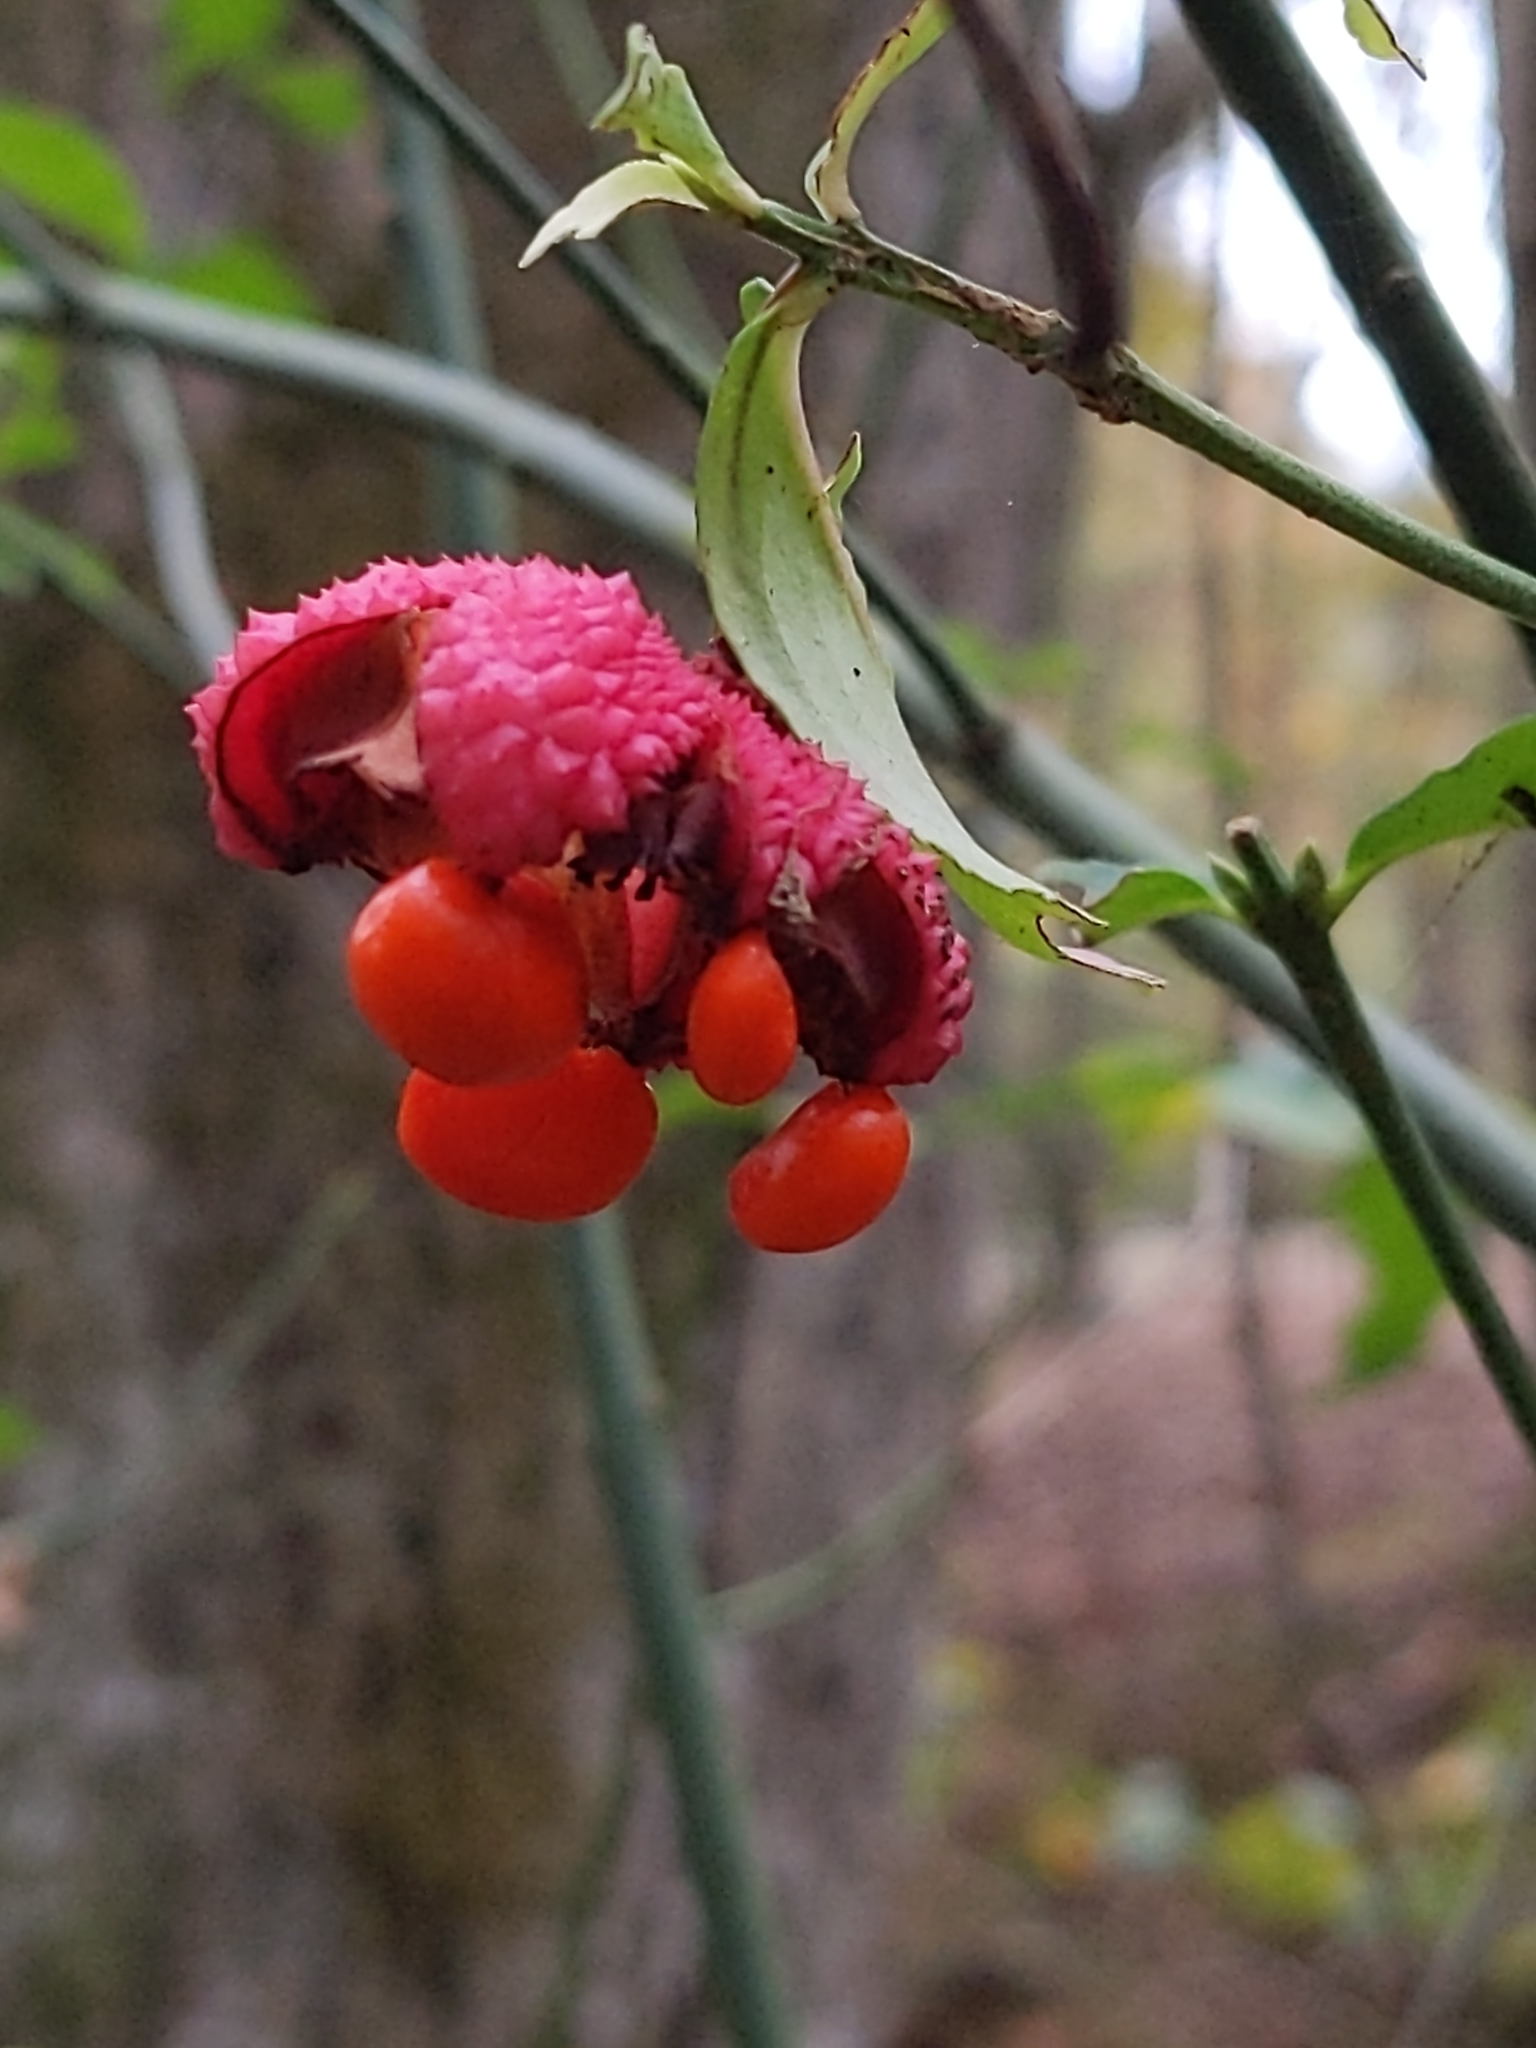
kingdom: Plantae
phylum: Tracheophyta
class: Magnoliopsida
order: Celastrales
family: Celastraceae
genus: Euonymus
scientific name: Euonymus americanus
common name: Bursting-heart
